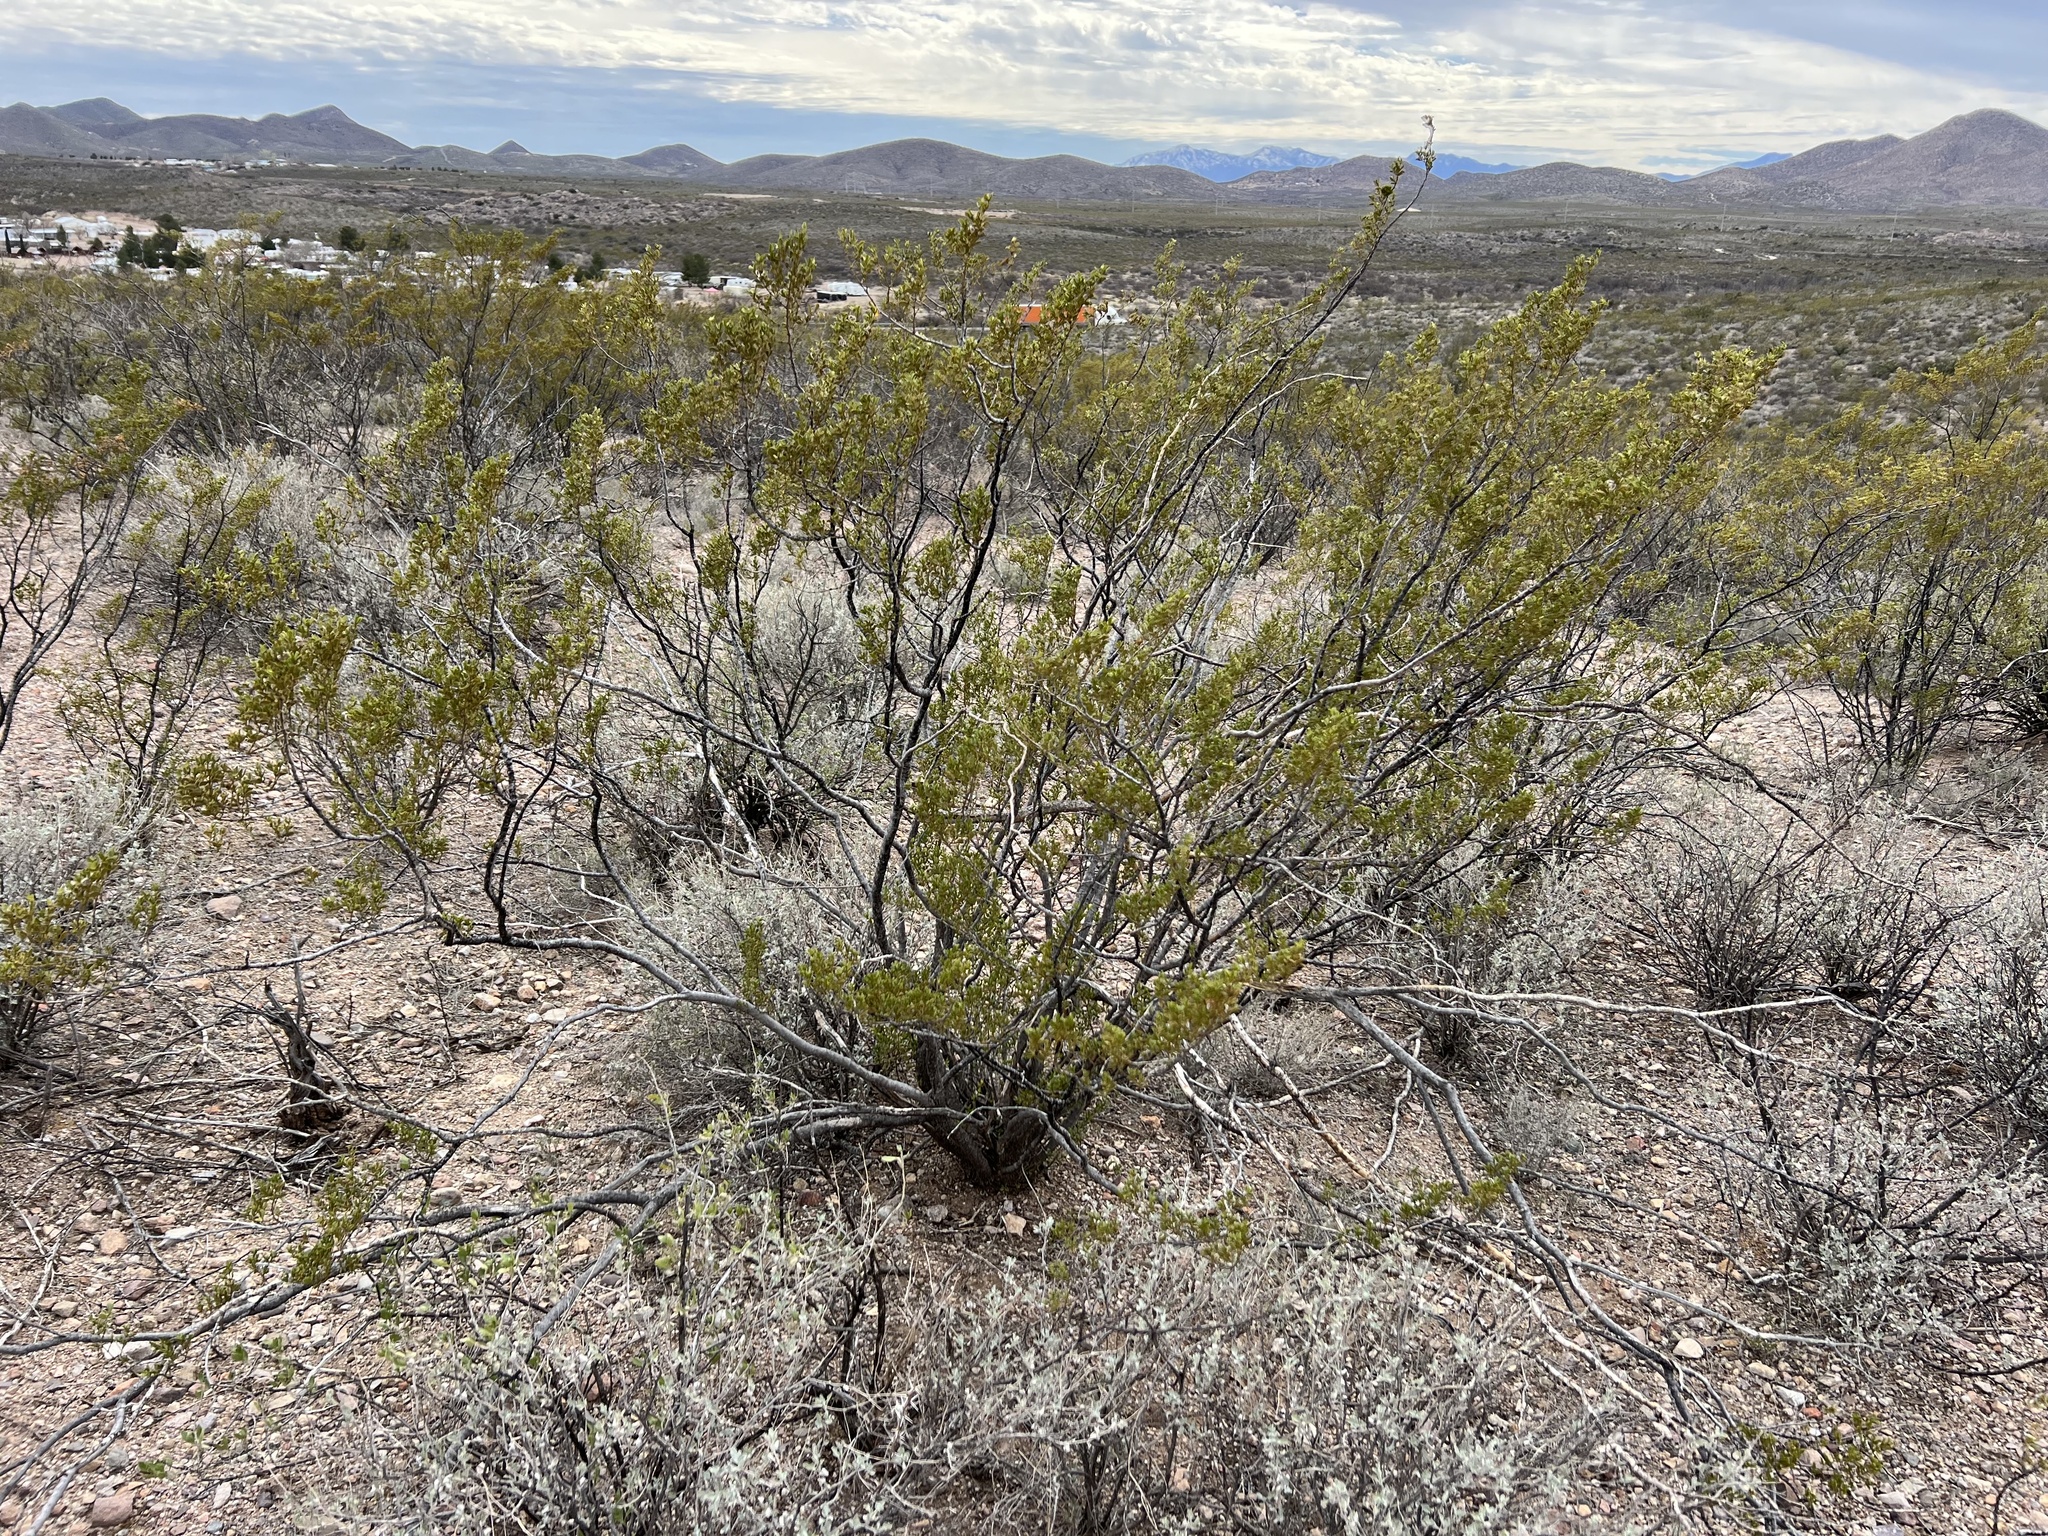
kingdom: Plantae
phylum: Tracheophyta
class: Magnoliopsida
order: Zygophyllales
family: Zygophyllaceae
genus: Larrea
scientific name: Larrea tridentata
